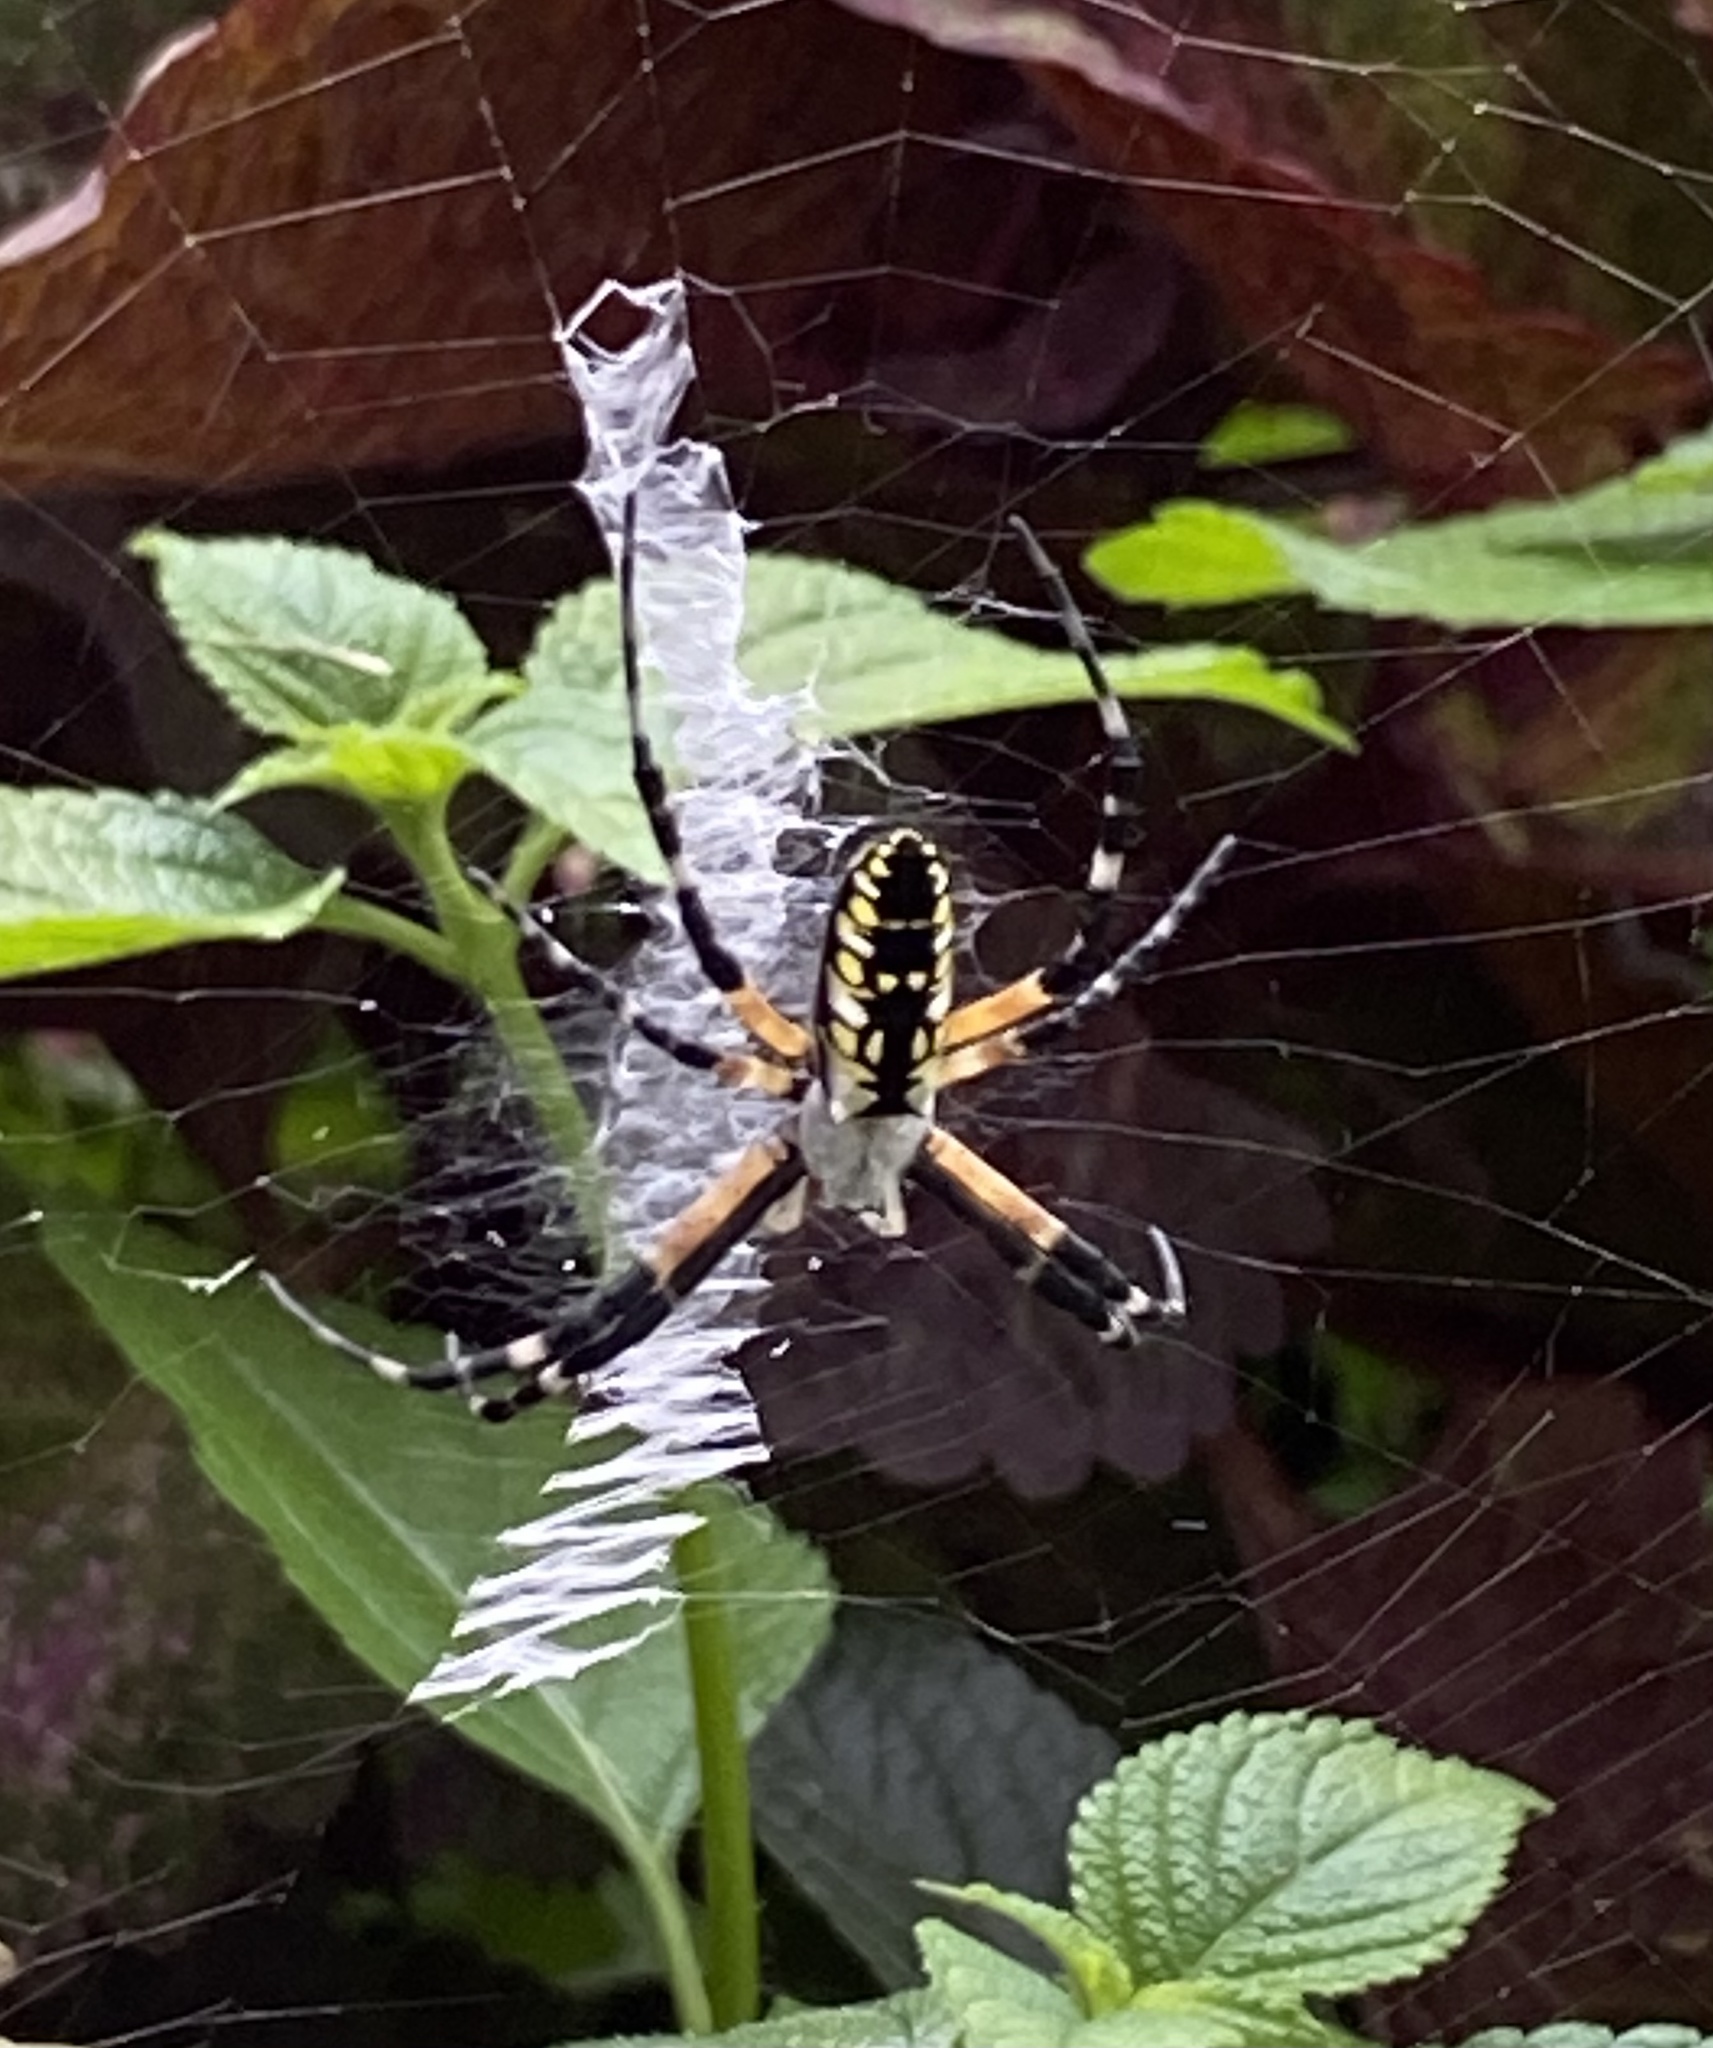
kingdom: Animalia
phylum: Arthropoda
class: Arachnida
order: Araneae
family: Araneidae
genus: Argiope
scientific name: Argiope aurantia
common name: Orb weavers
